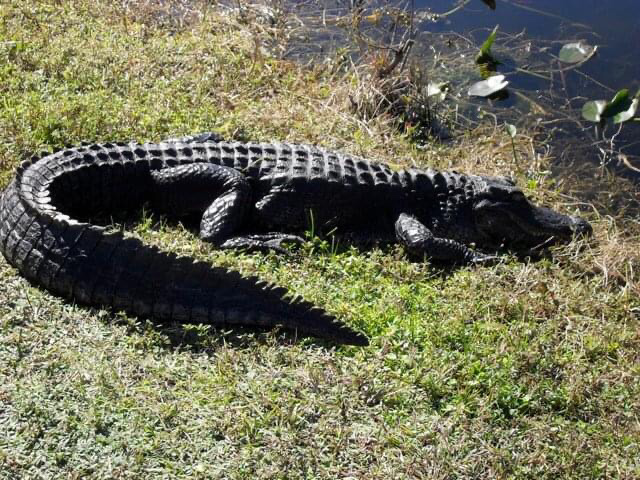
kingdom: Animalia
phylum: Chordata
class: Crocodylia
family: Alligatoridae
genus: Alligator
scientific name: Alligator mississippiensis
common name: American alligator
